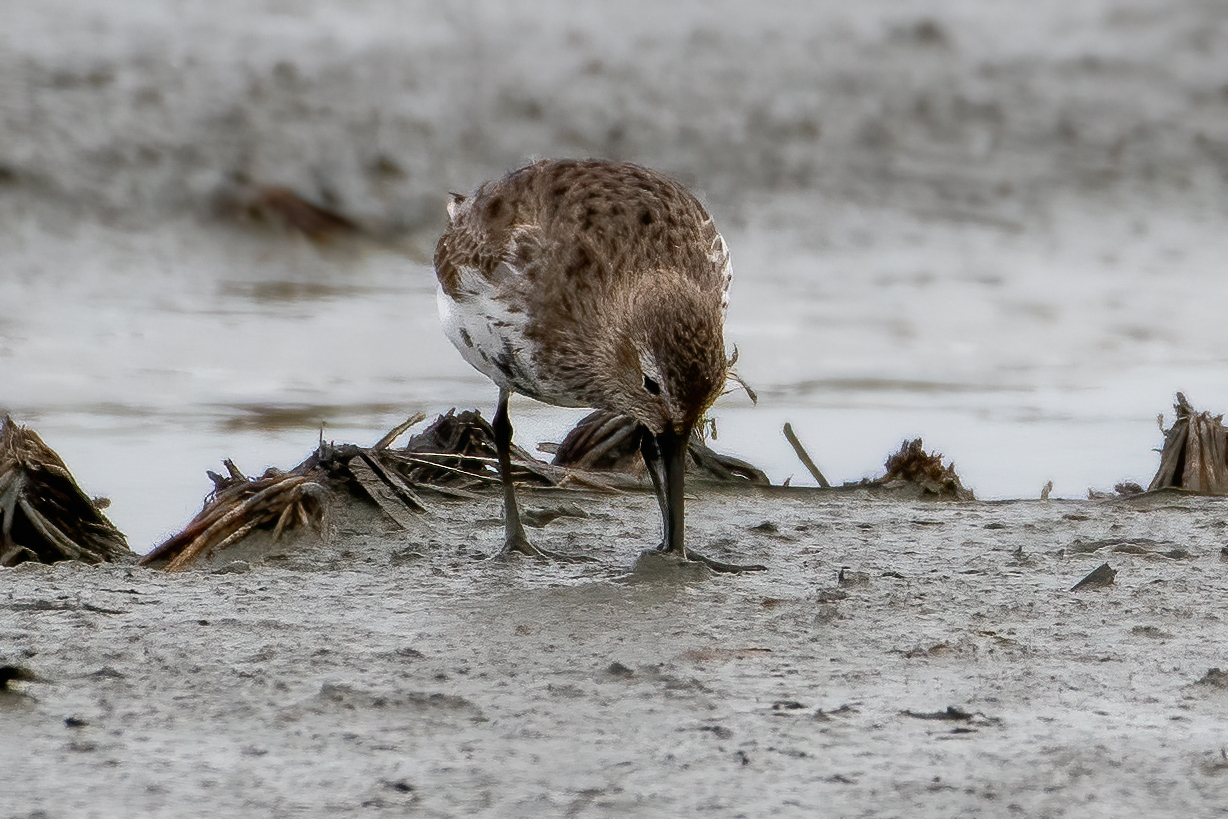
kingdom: Animalia
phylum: Chordata
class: Aves
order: Charadriiformes
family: Scolopacidae
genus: Calidris
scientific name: Calidris alpina
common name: Dunlin
